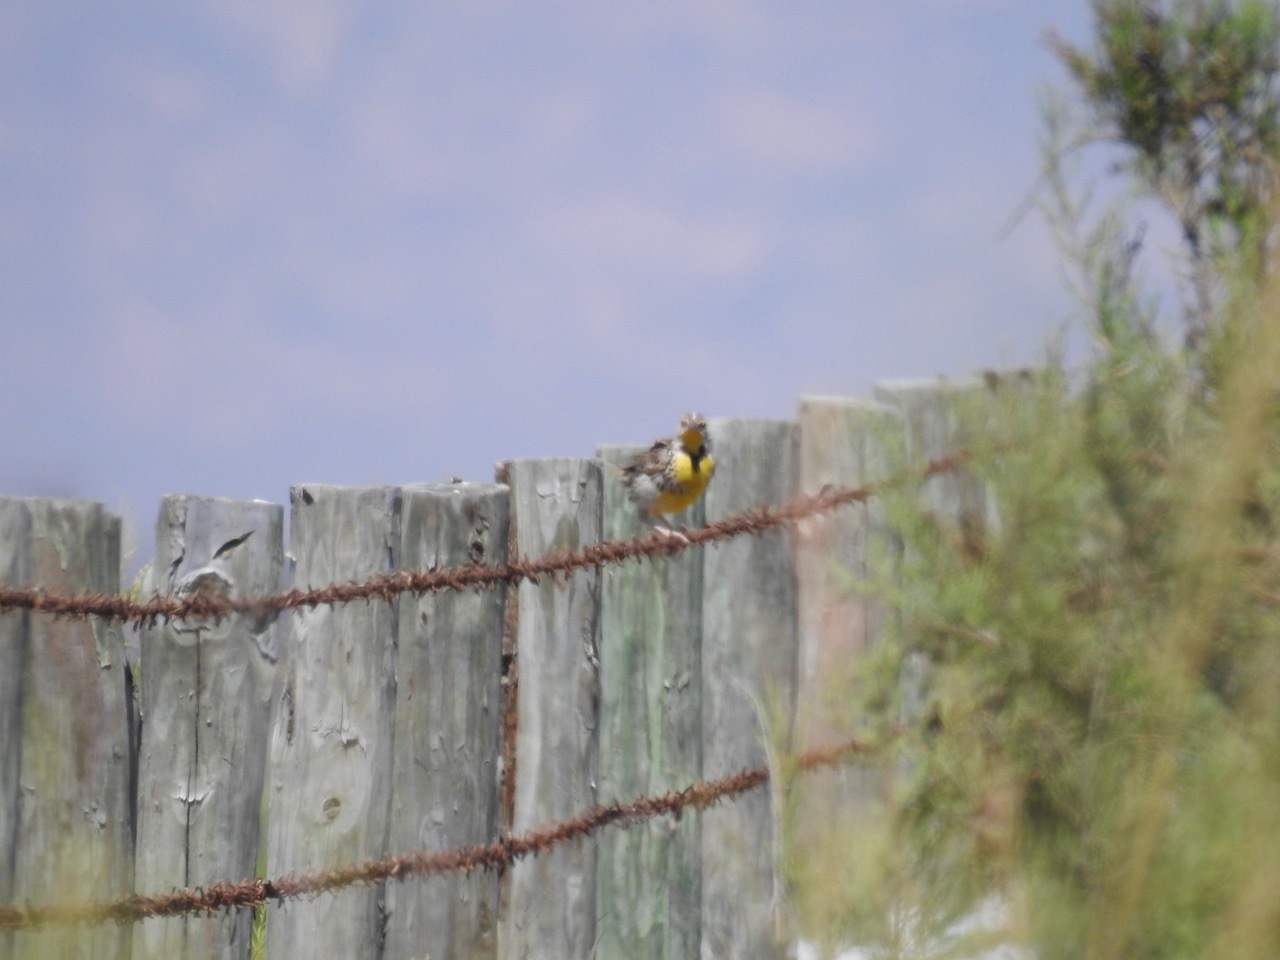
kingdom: Animalia
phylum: Chordata
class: Aves
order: Passeriformes
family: Icteridae
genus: Sturnella
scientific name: Sturnella neglecta
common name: Western meadowlark
